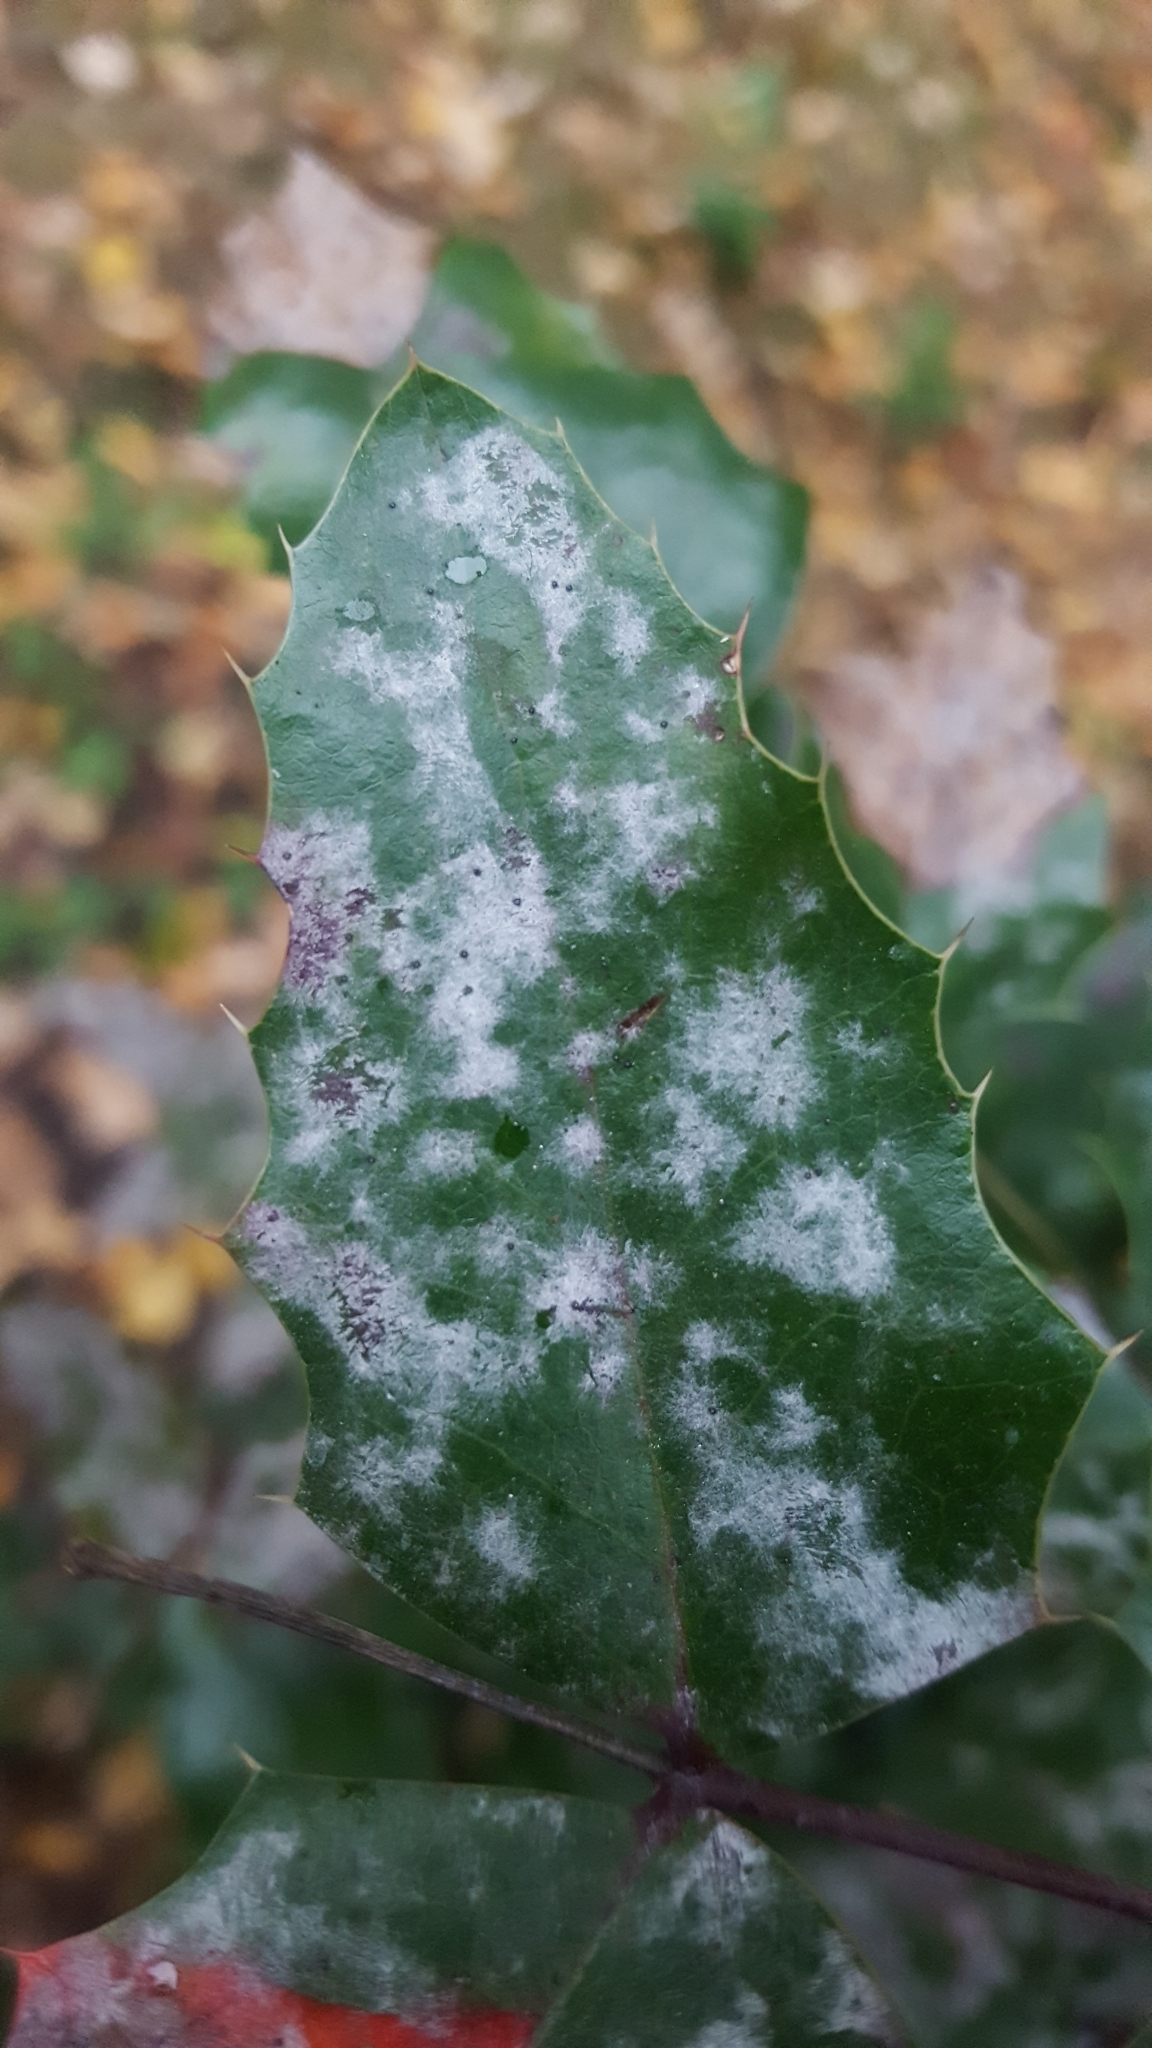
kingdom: Fungi
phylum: Ascomycota
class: Leotiomycetes
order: Helotiales
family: Erysiphaceae
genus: Erysiphe
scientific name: Erysiphe berberidis
